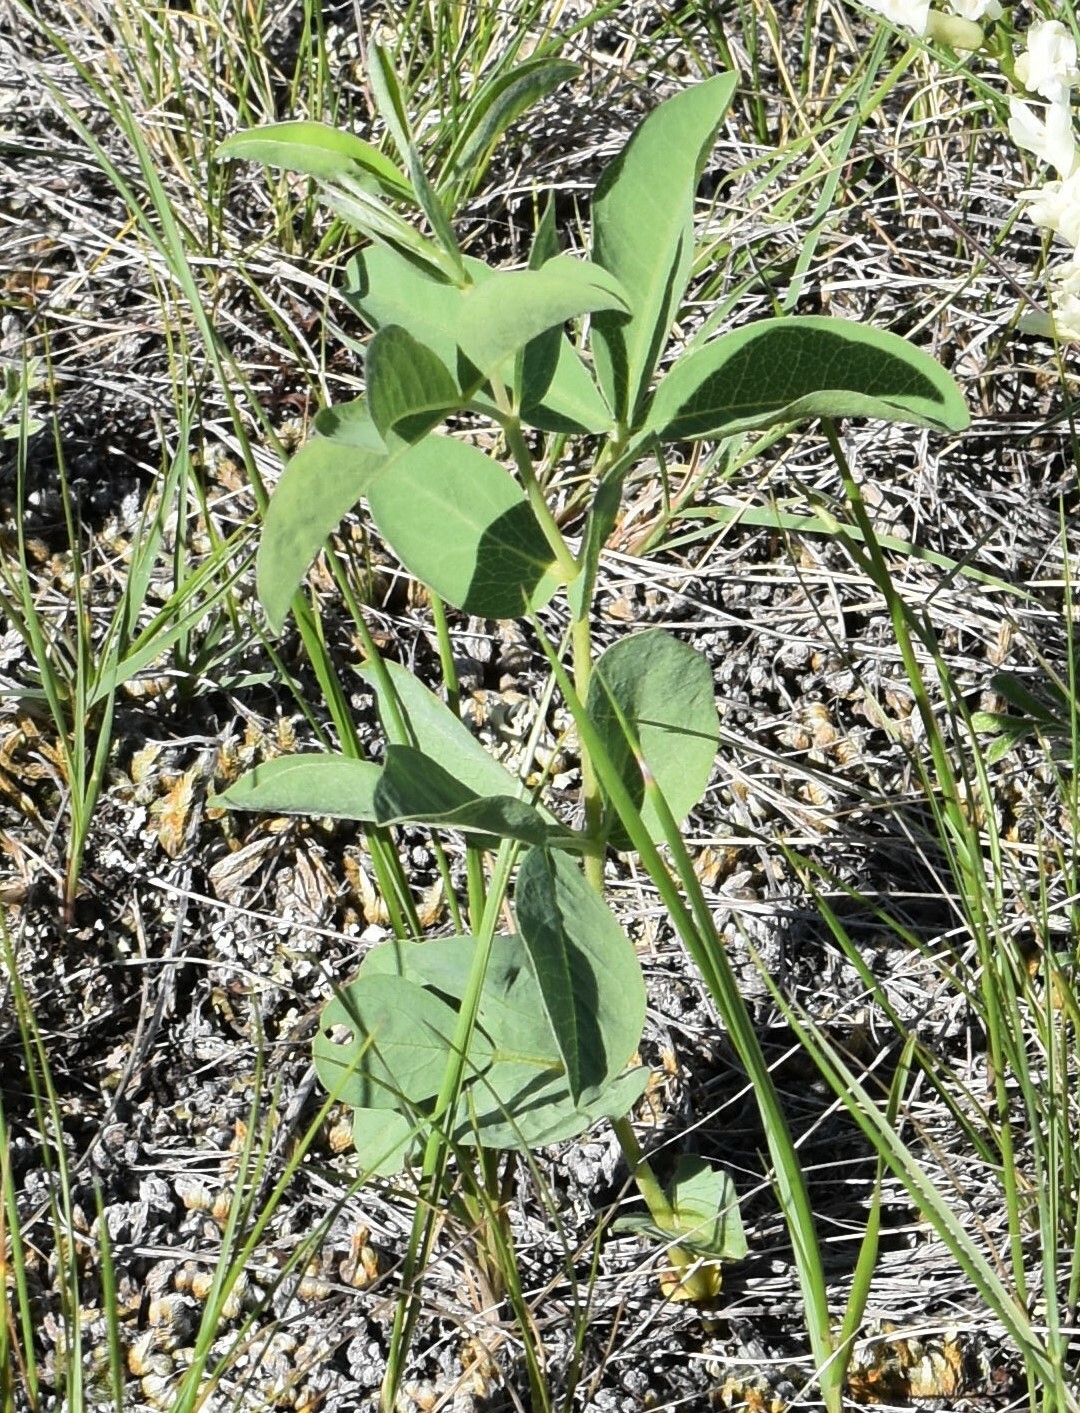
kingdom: Plantae
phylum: Tracheophyta
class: Magnoliopsida
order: Fabales
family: Fabaceae
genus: Thermopsis
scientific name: Thermopsis rhombifolia
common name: Circle-pod-pea
